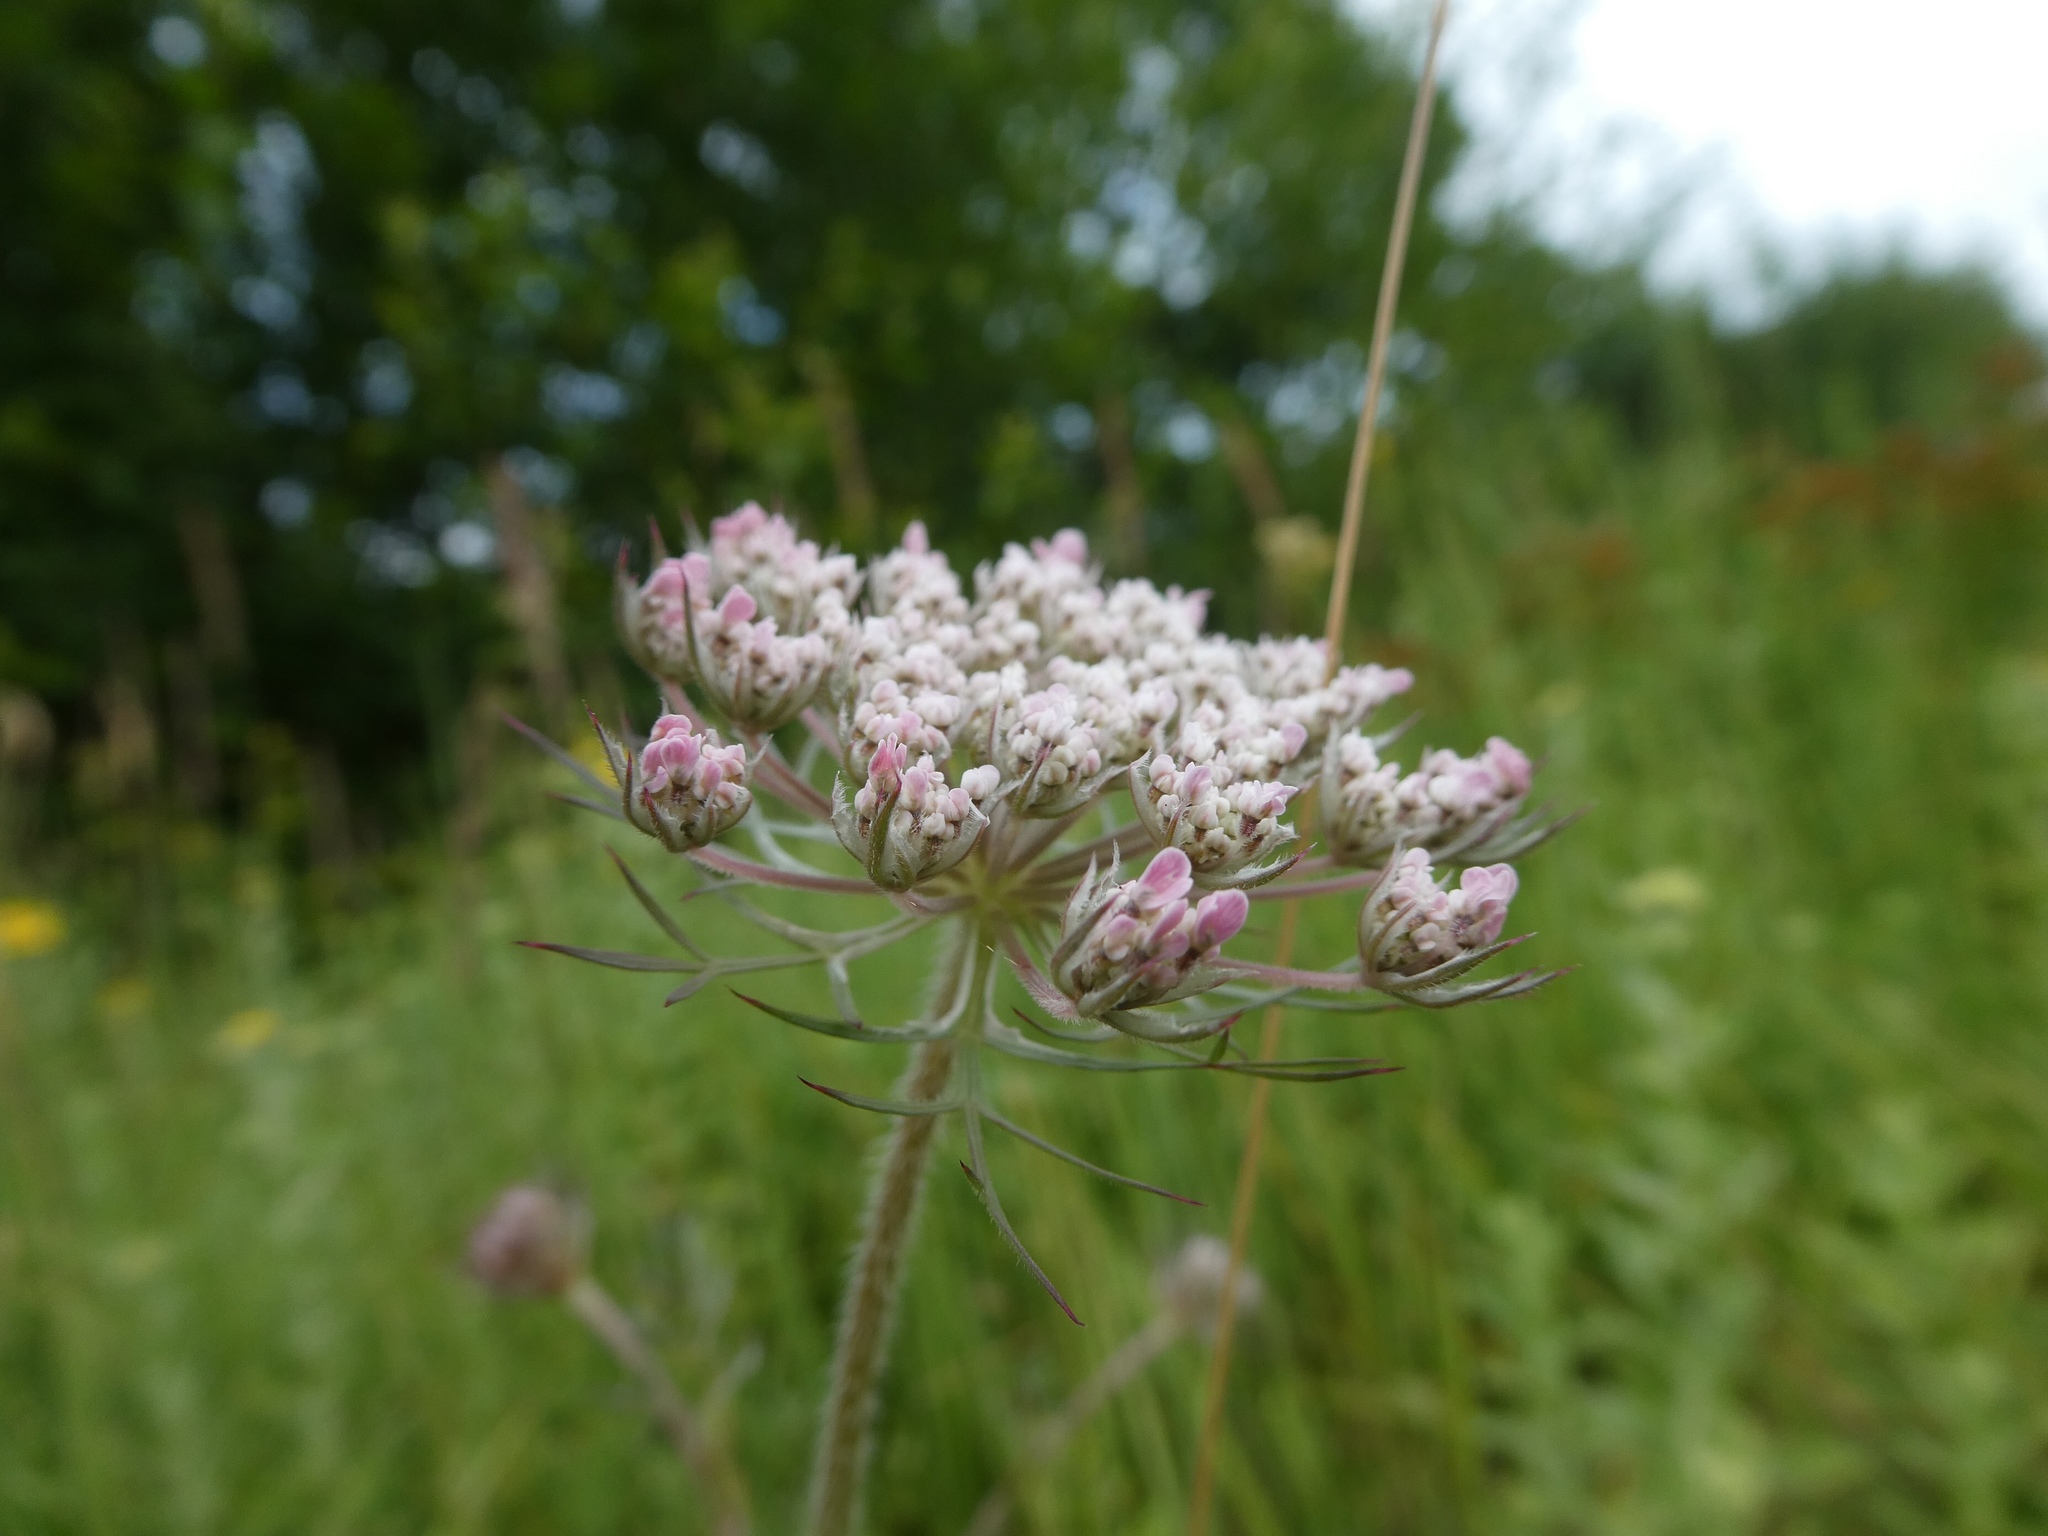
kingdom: Plantae
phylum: Tracheophyta
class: Magnoliopsida
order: Apiales
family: Apiaceae
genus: Daucus
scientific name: Daucus carota
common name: Wild carrot
